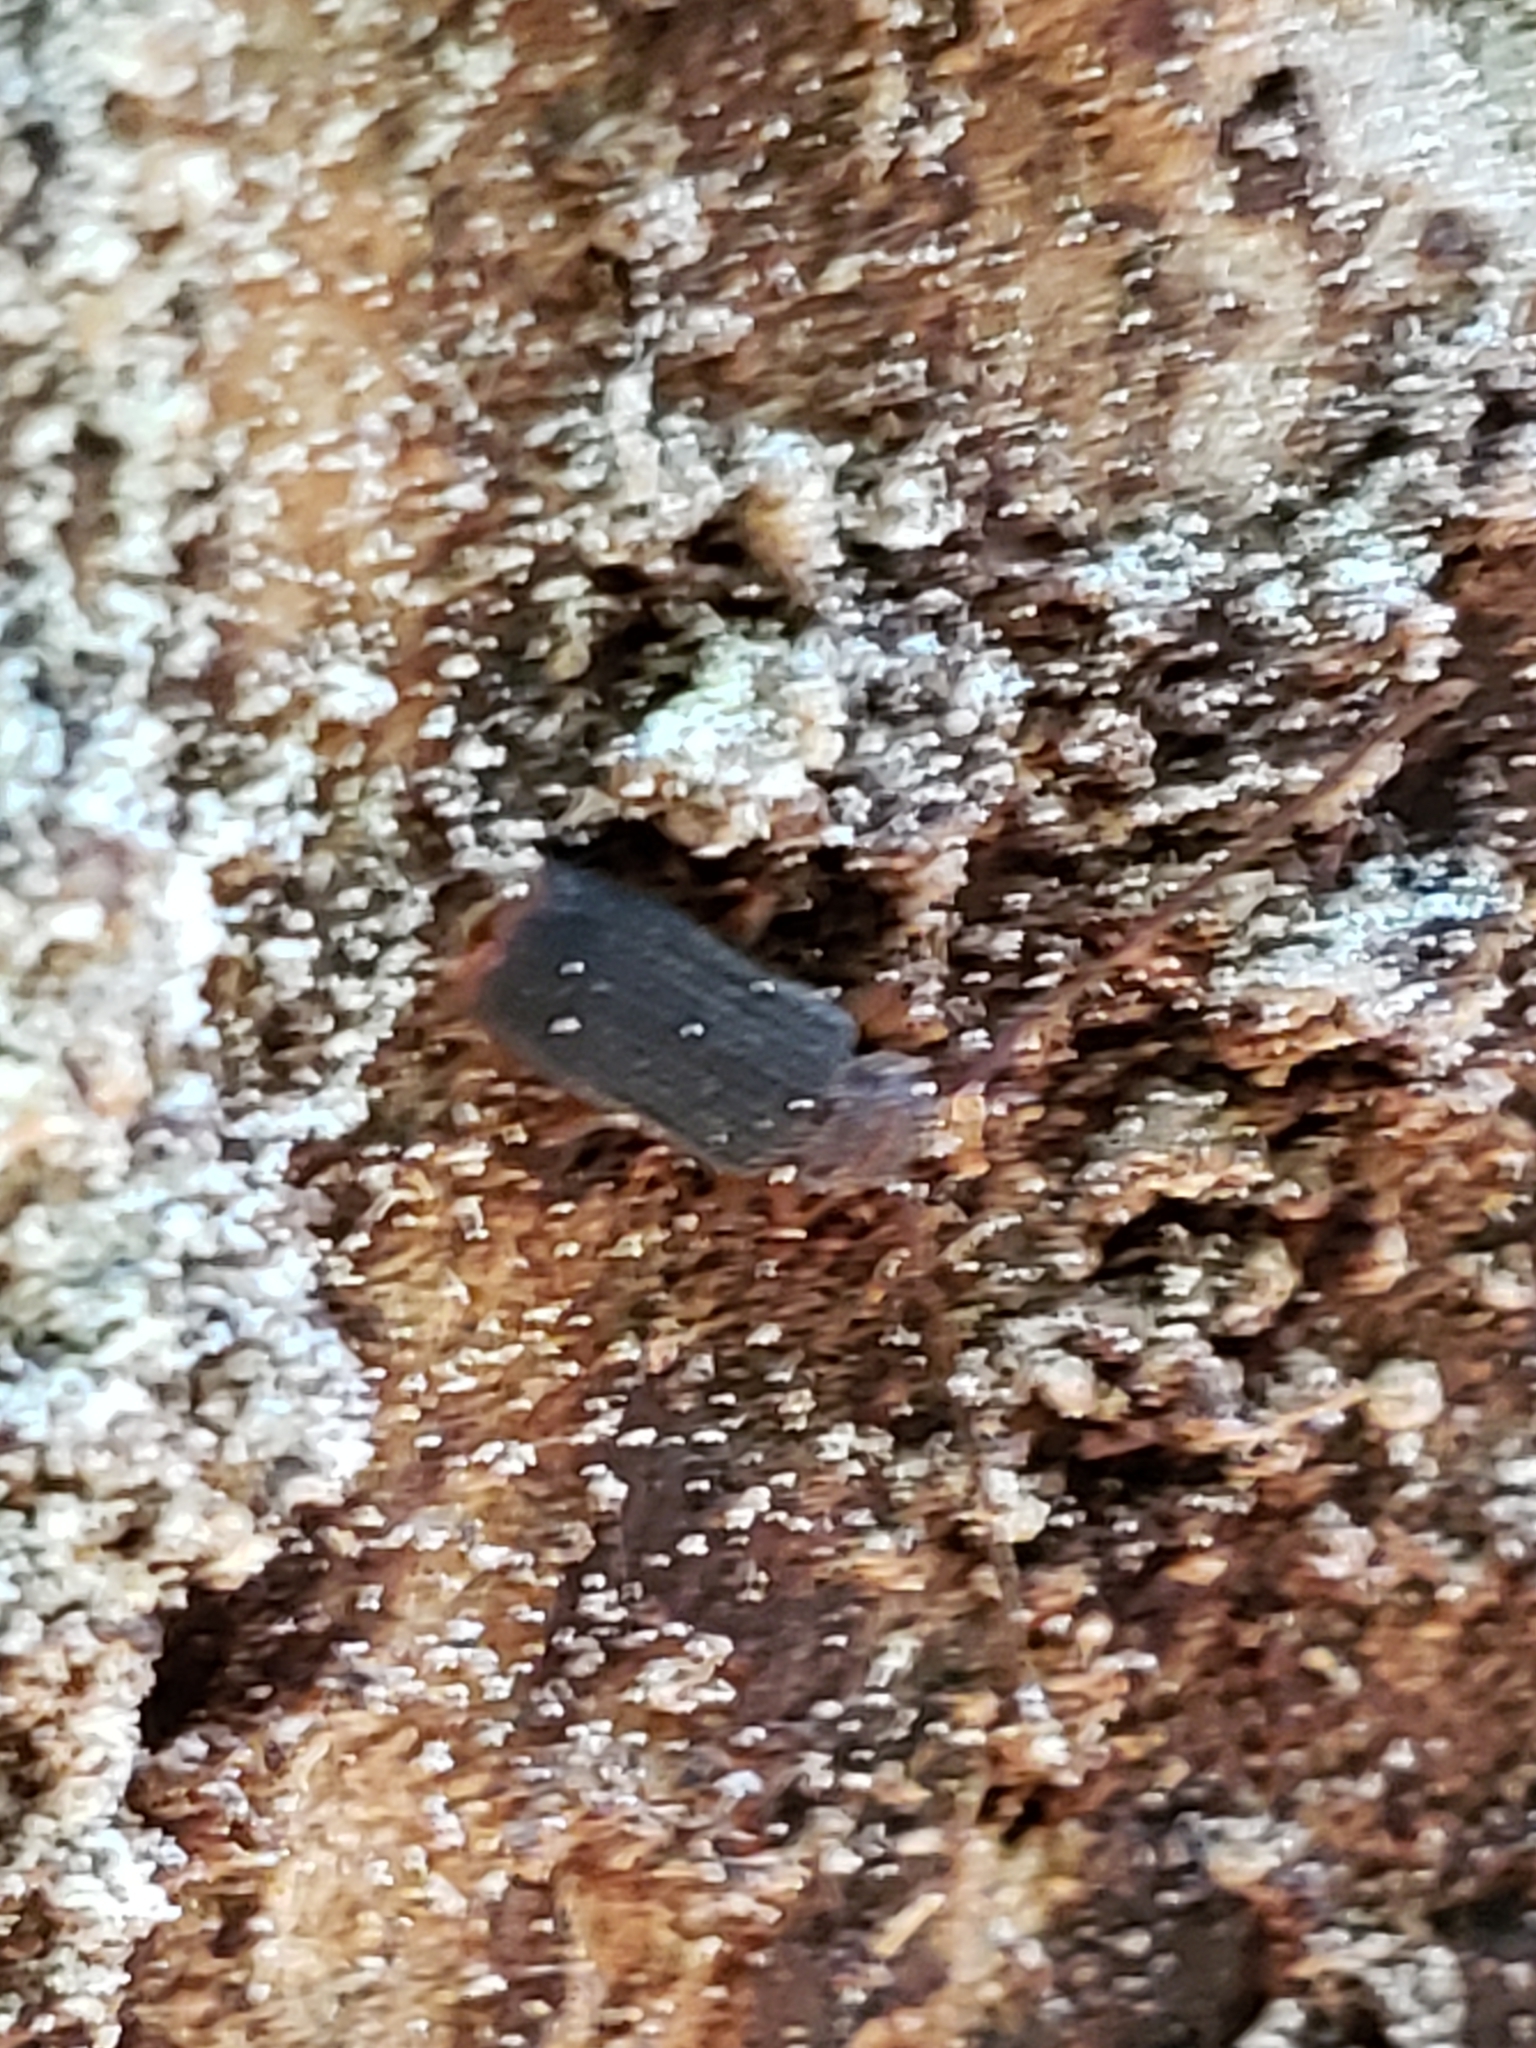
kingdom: Animalia
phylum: Arthropoda
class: Insecta
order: Coleoptera
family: Silvanidae
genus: Uleiota
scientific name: Uleiota dubia
